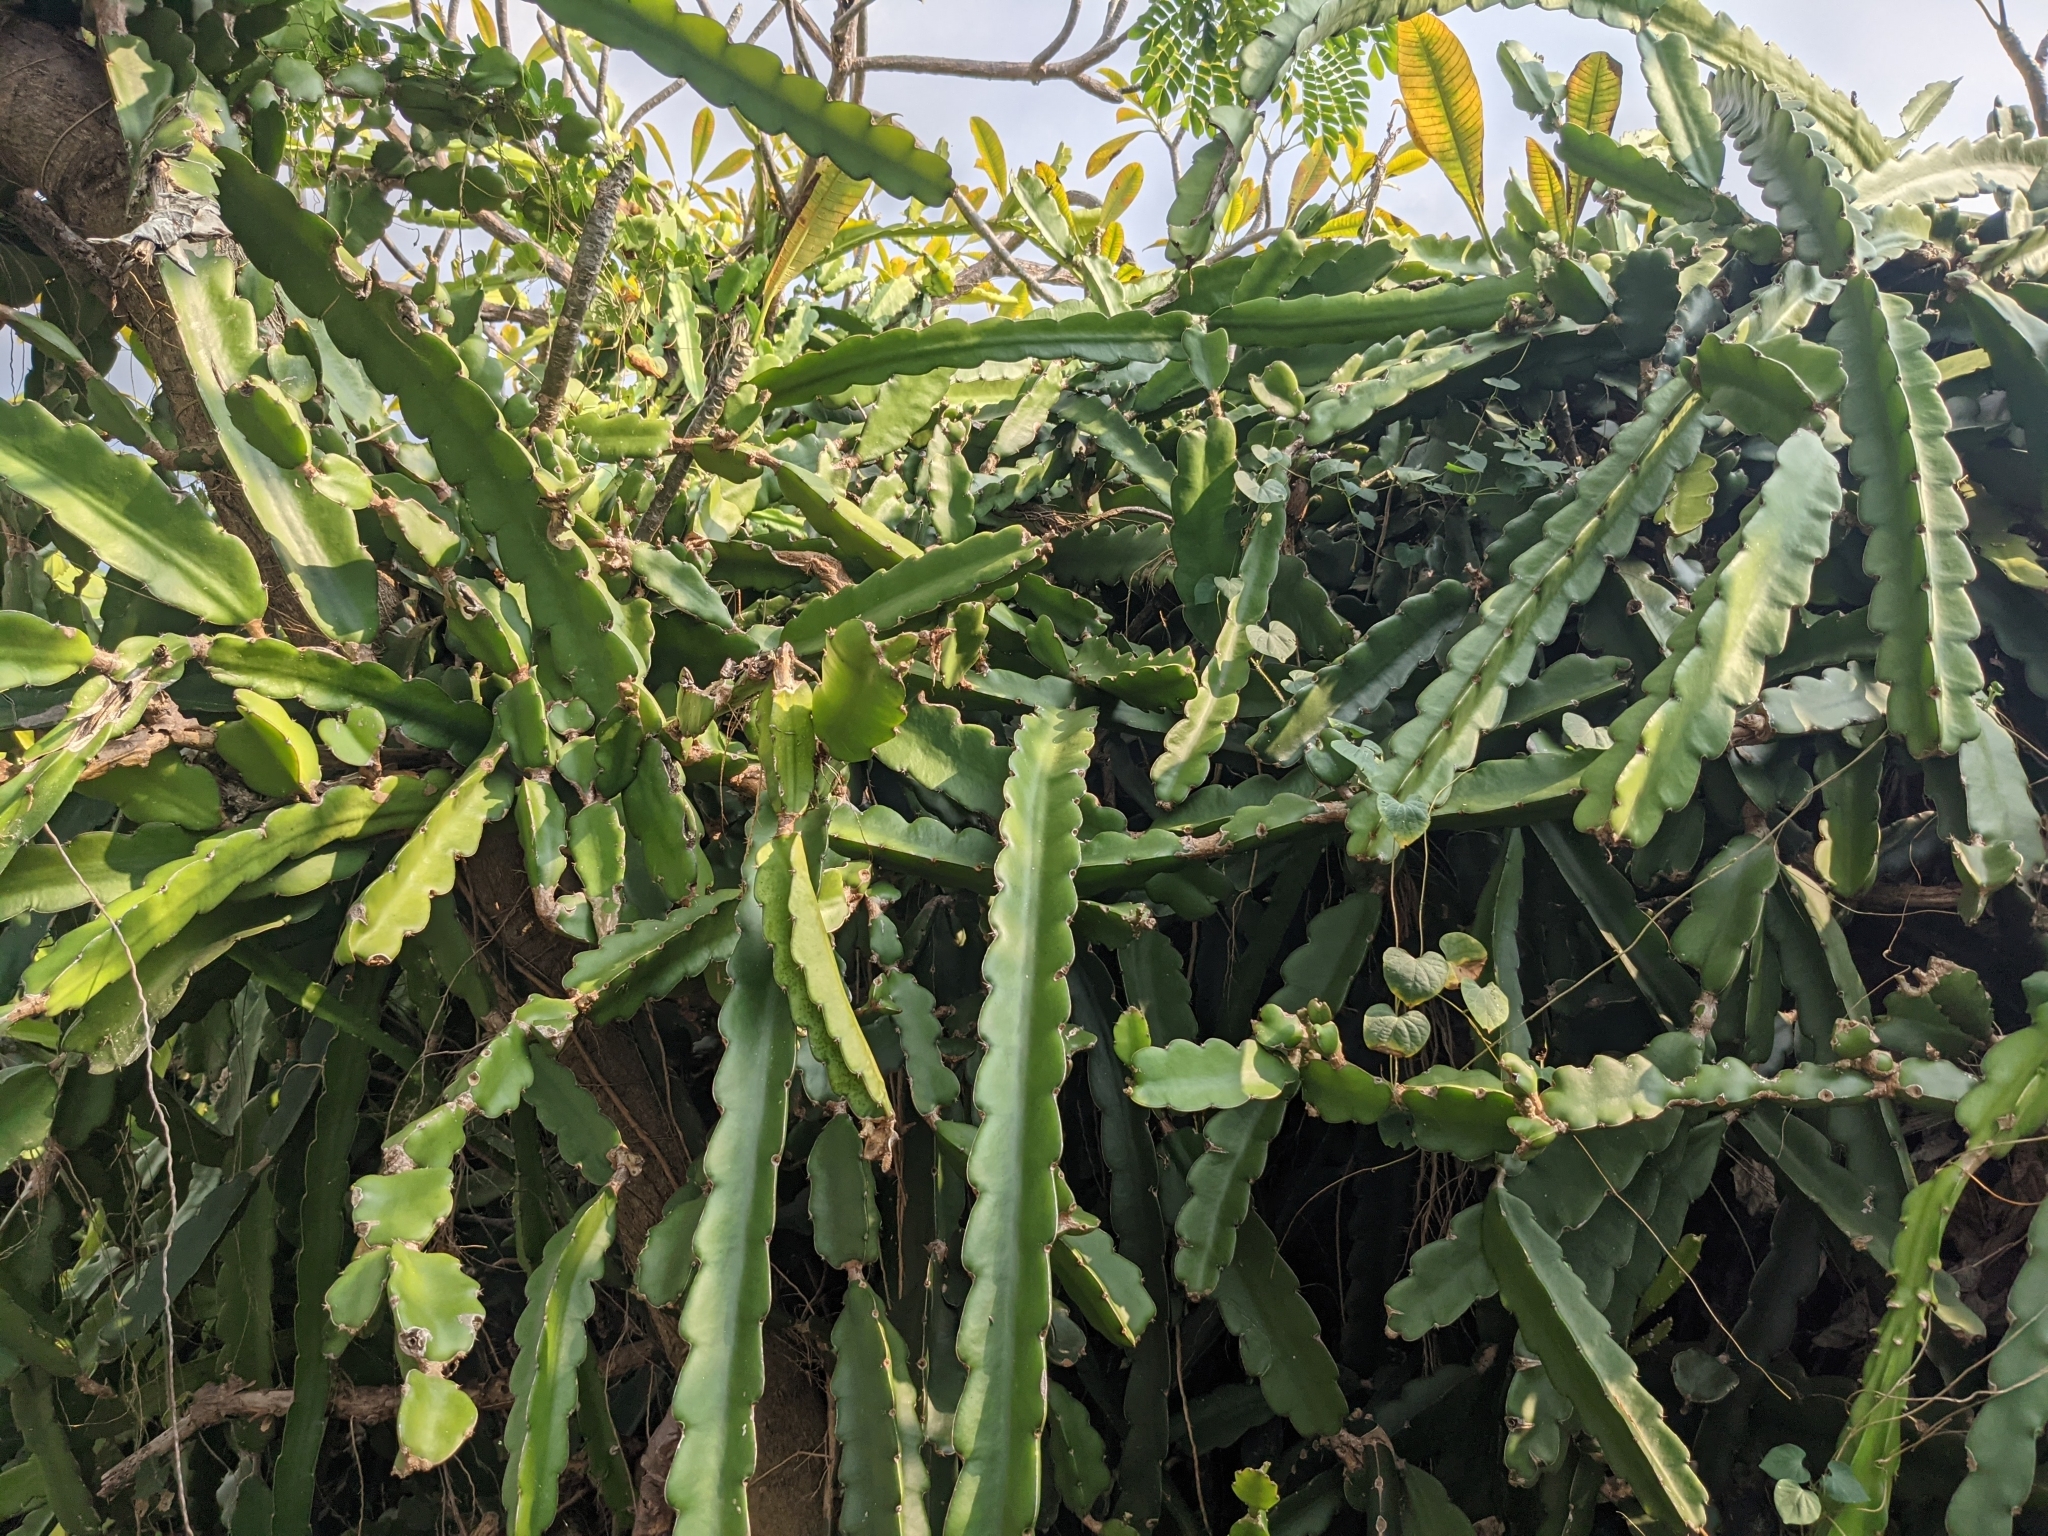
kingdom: Plantae
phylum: Tracheophyta
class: Magnoliopsida
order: Caryophyllales
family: Cactaceae
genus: Selenicereus
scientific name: Selenicereus undatus
